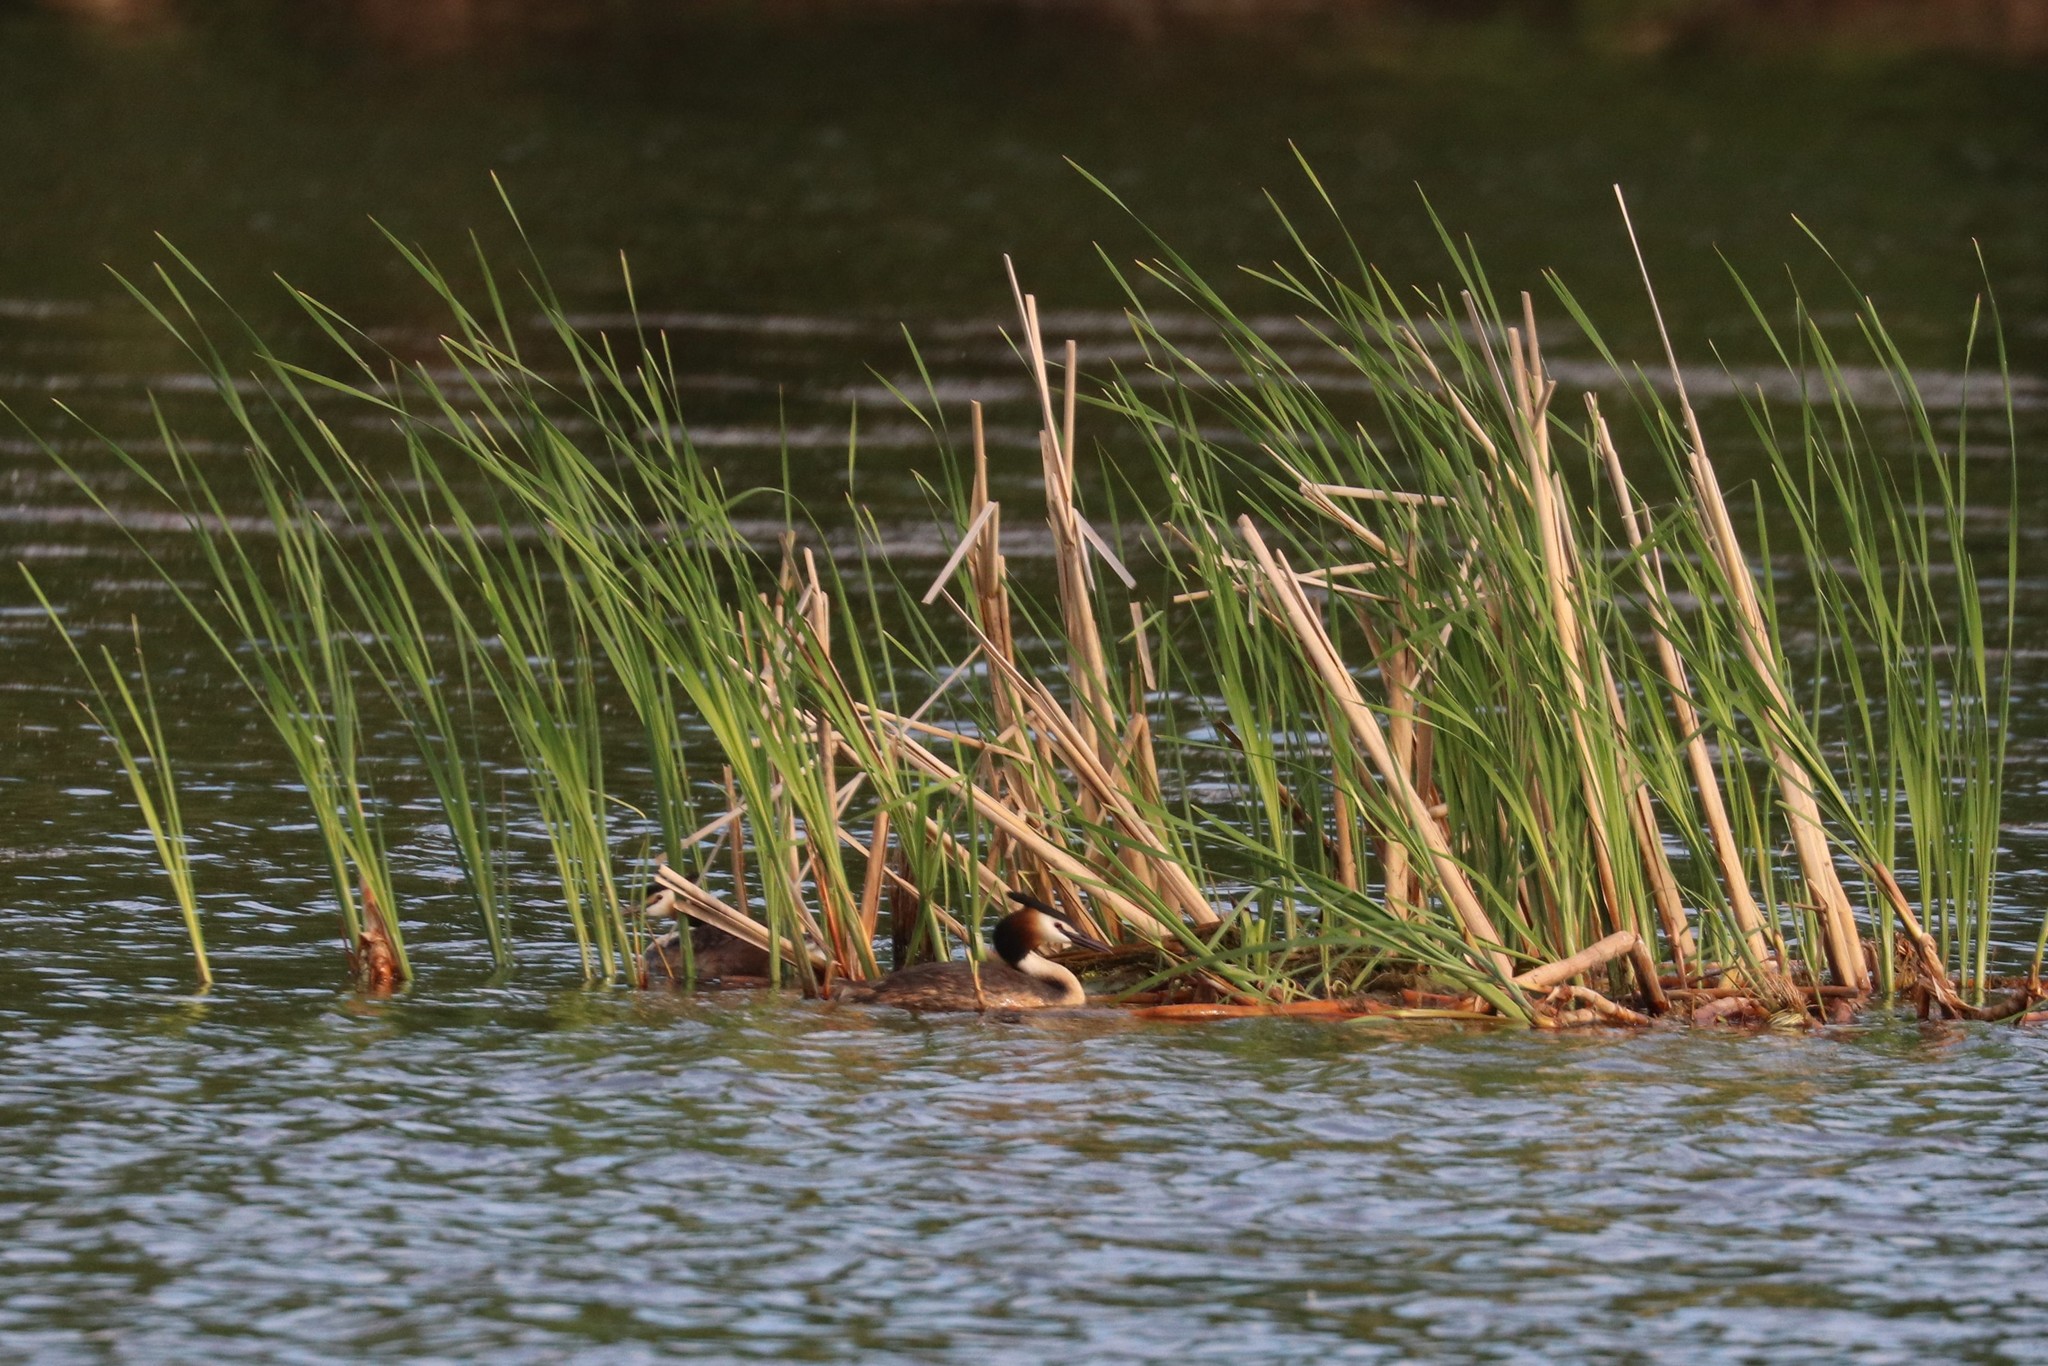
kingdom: Animalia
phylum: Chordata
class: Aves
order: Podicipediformes
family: Podicipedidae
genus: Podiceps
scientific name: Podiceps cristatus
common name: Great crested grebe
